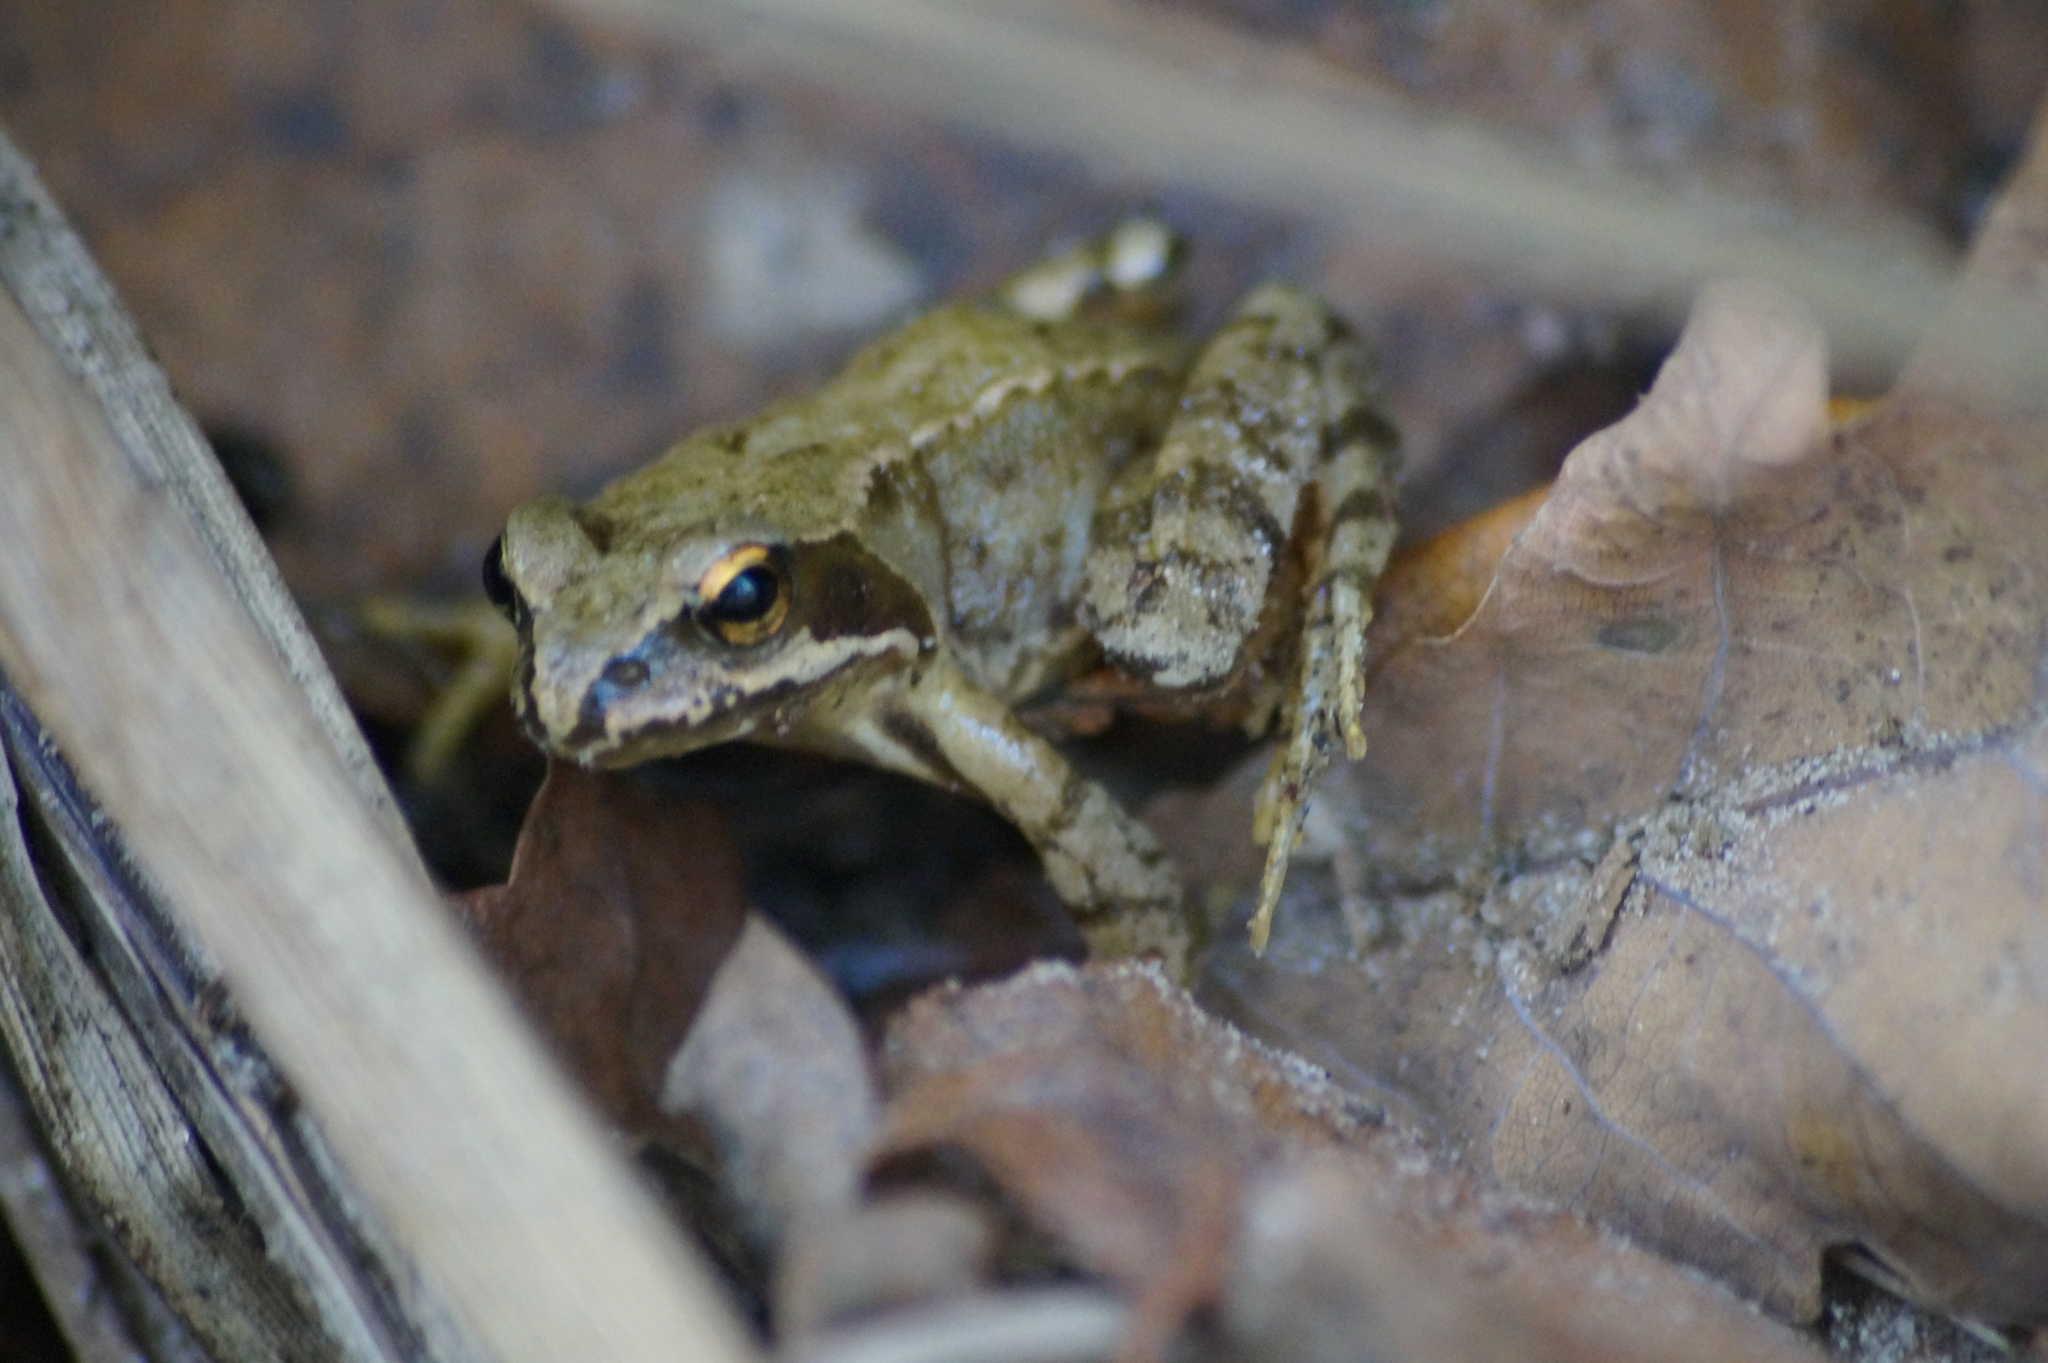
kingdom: Animalia
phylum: Chordata
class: Amphibia
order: Anura
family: Ranidae
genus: Rana
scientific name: Rana temporaria
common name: Common frog
